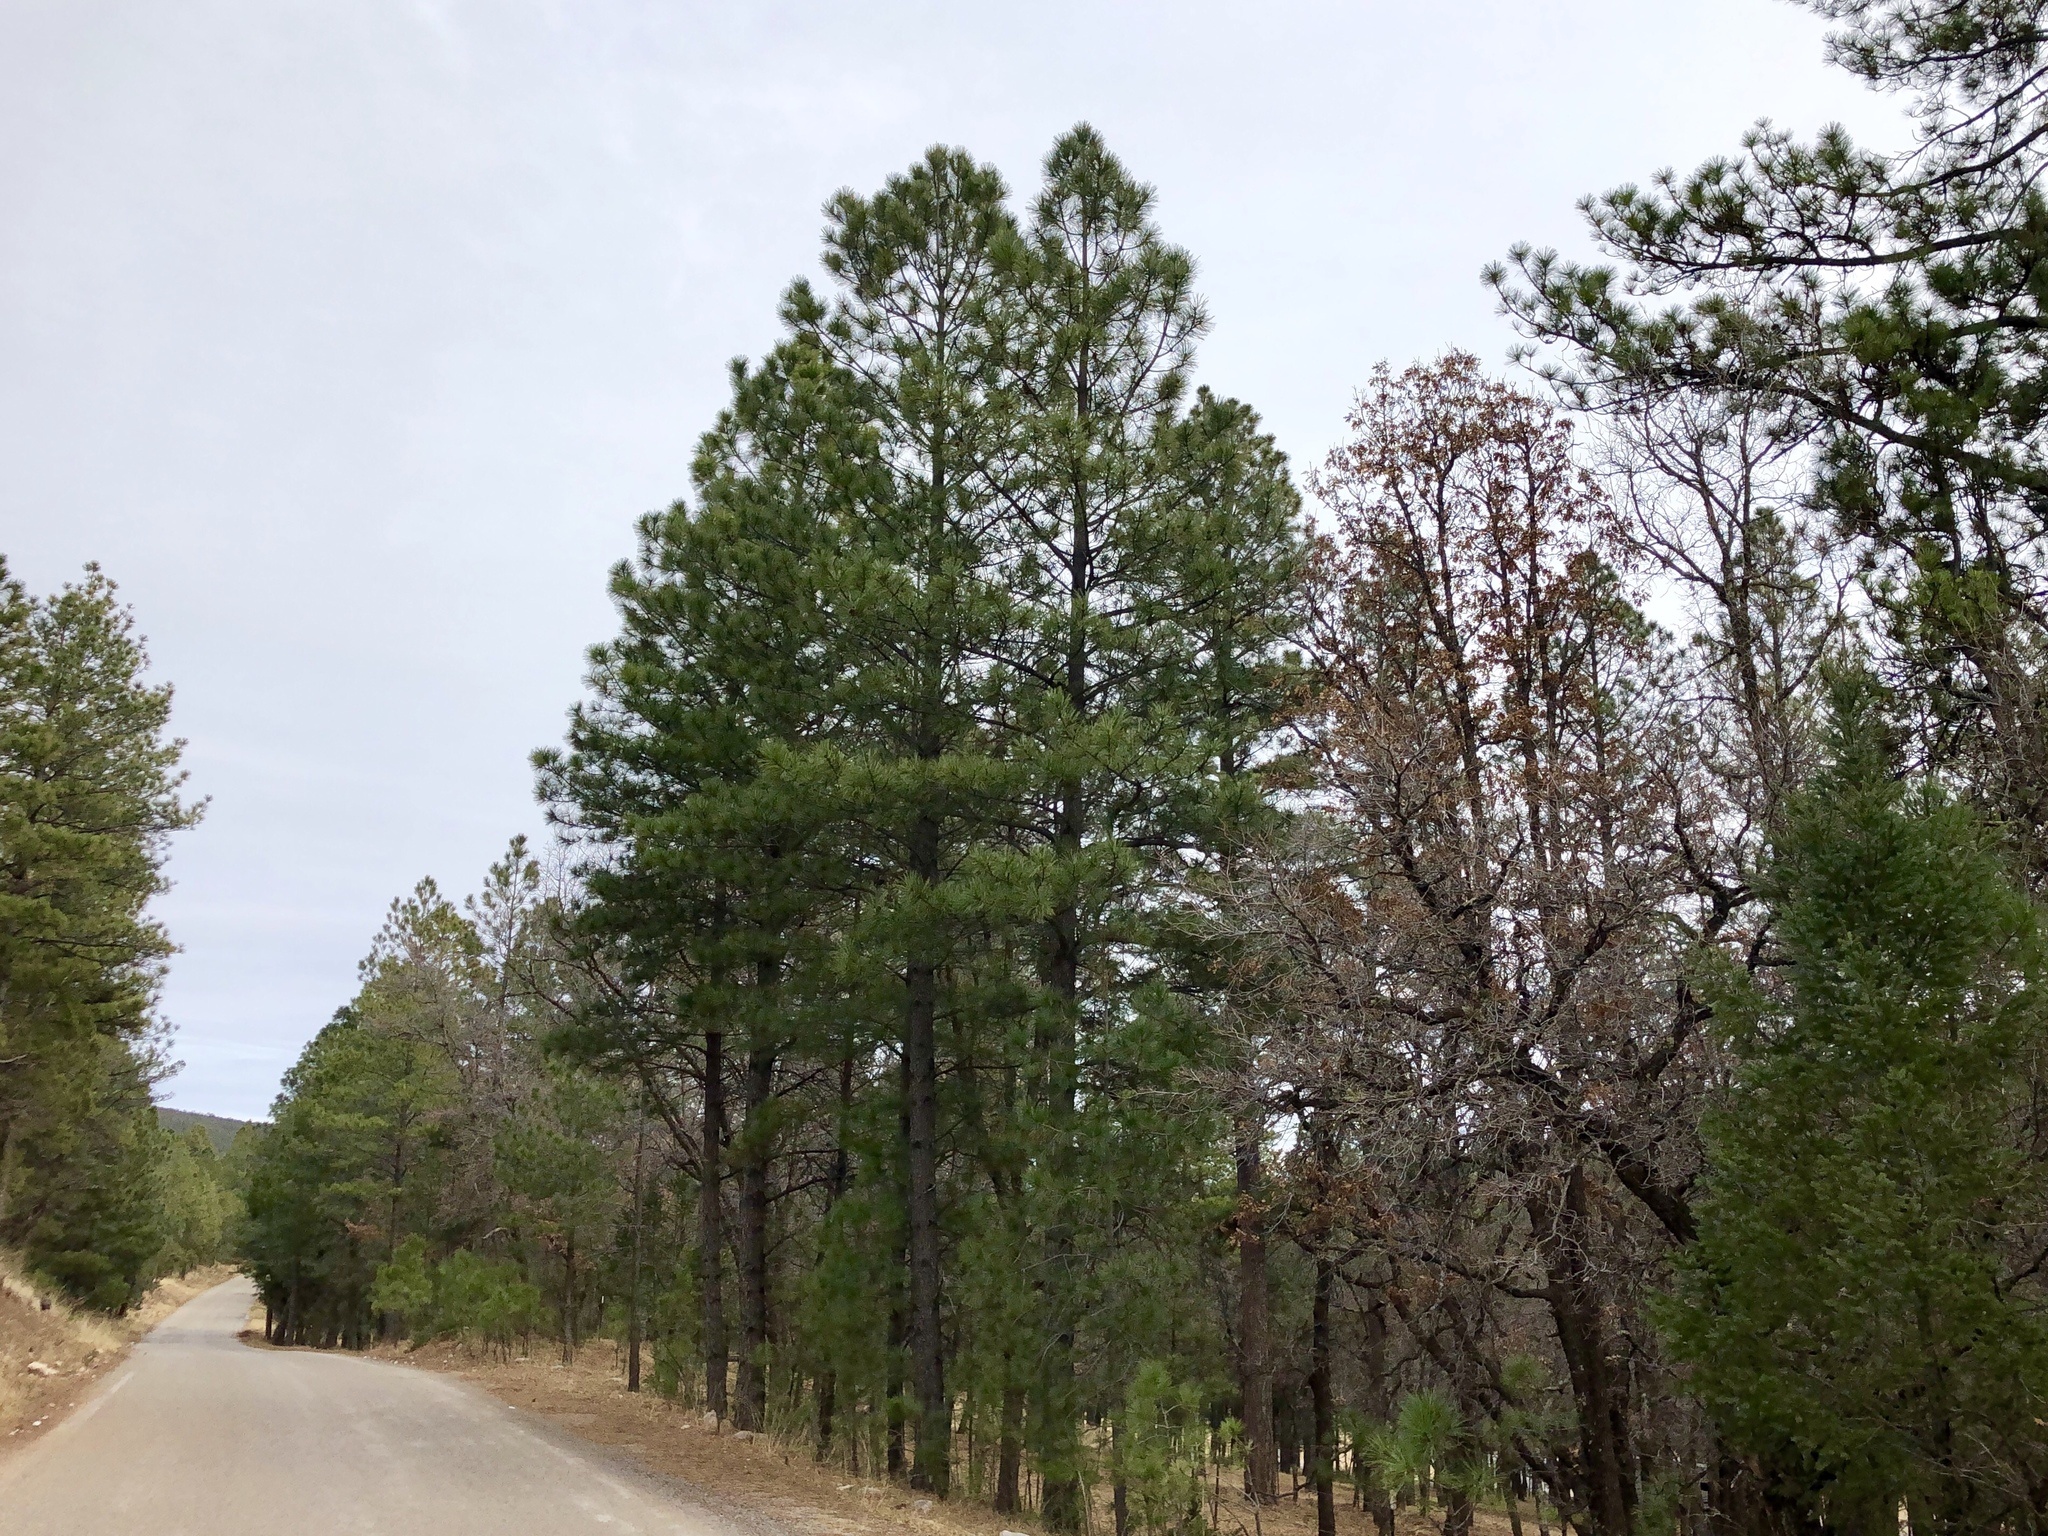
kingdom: Plantae
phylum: Tracheophyta
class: Pinopsida
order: Pinales
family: Pinaceae
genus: Pinus
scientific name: Pinus ponderosa
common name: Western yellow-pine
